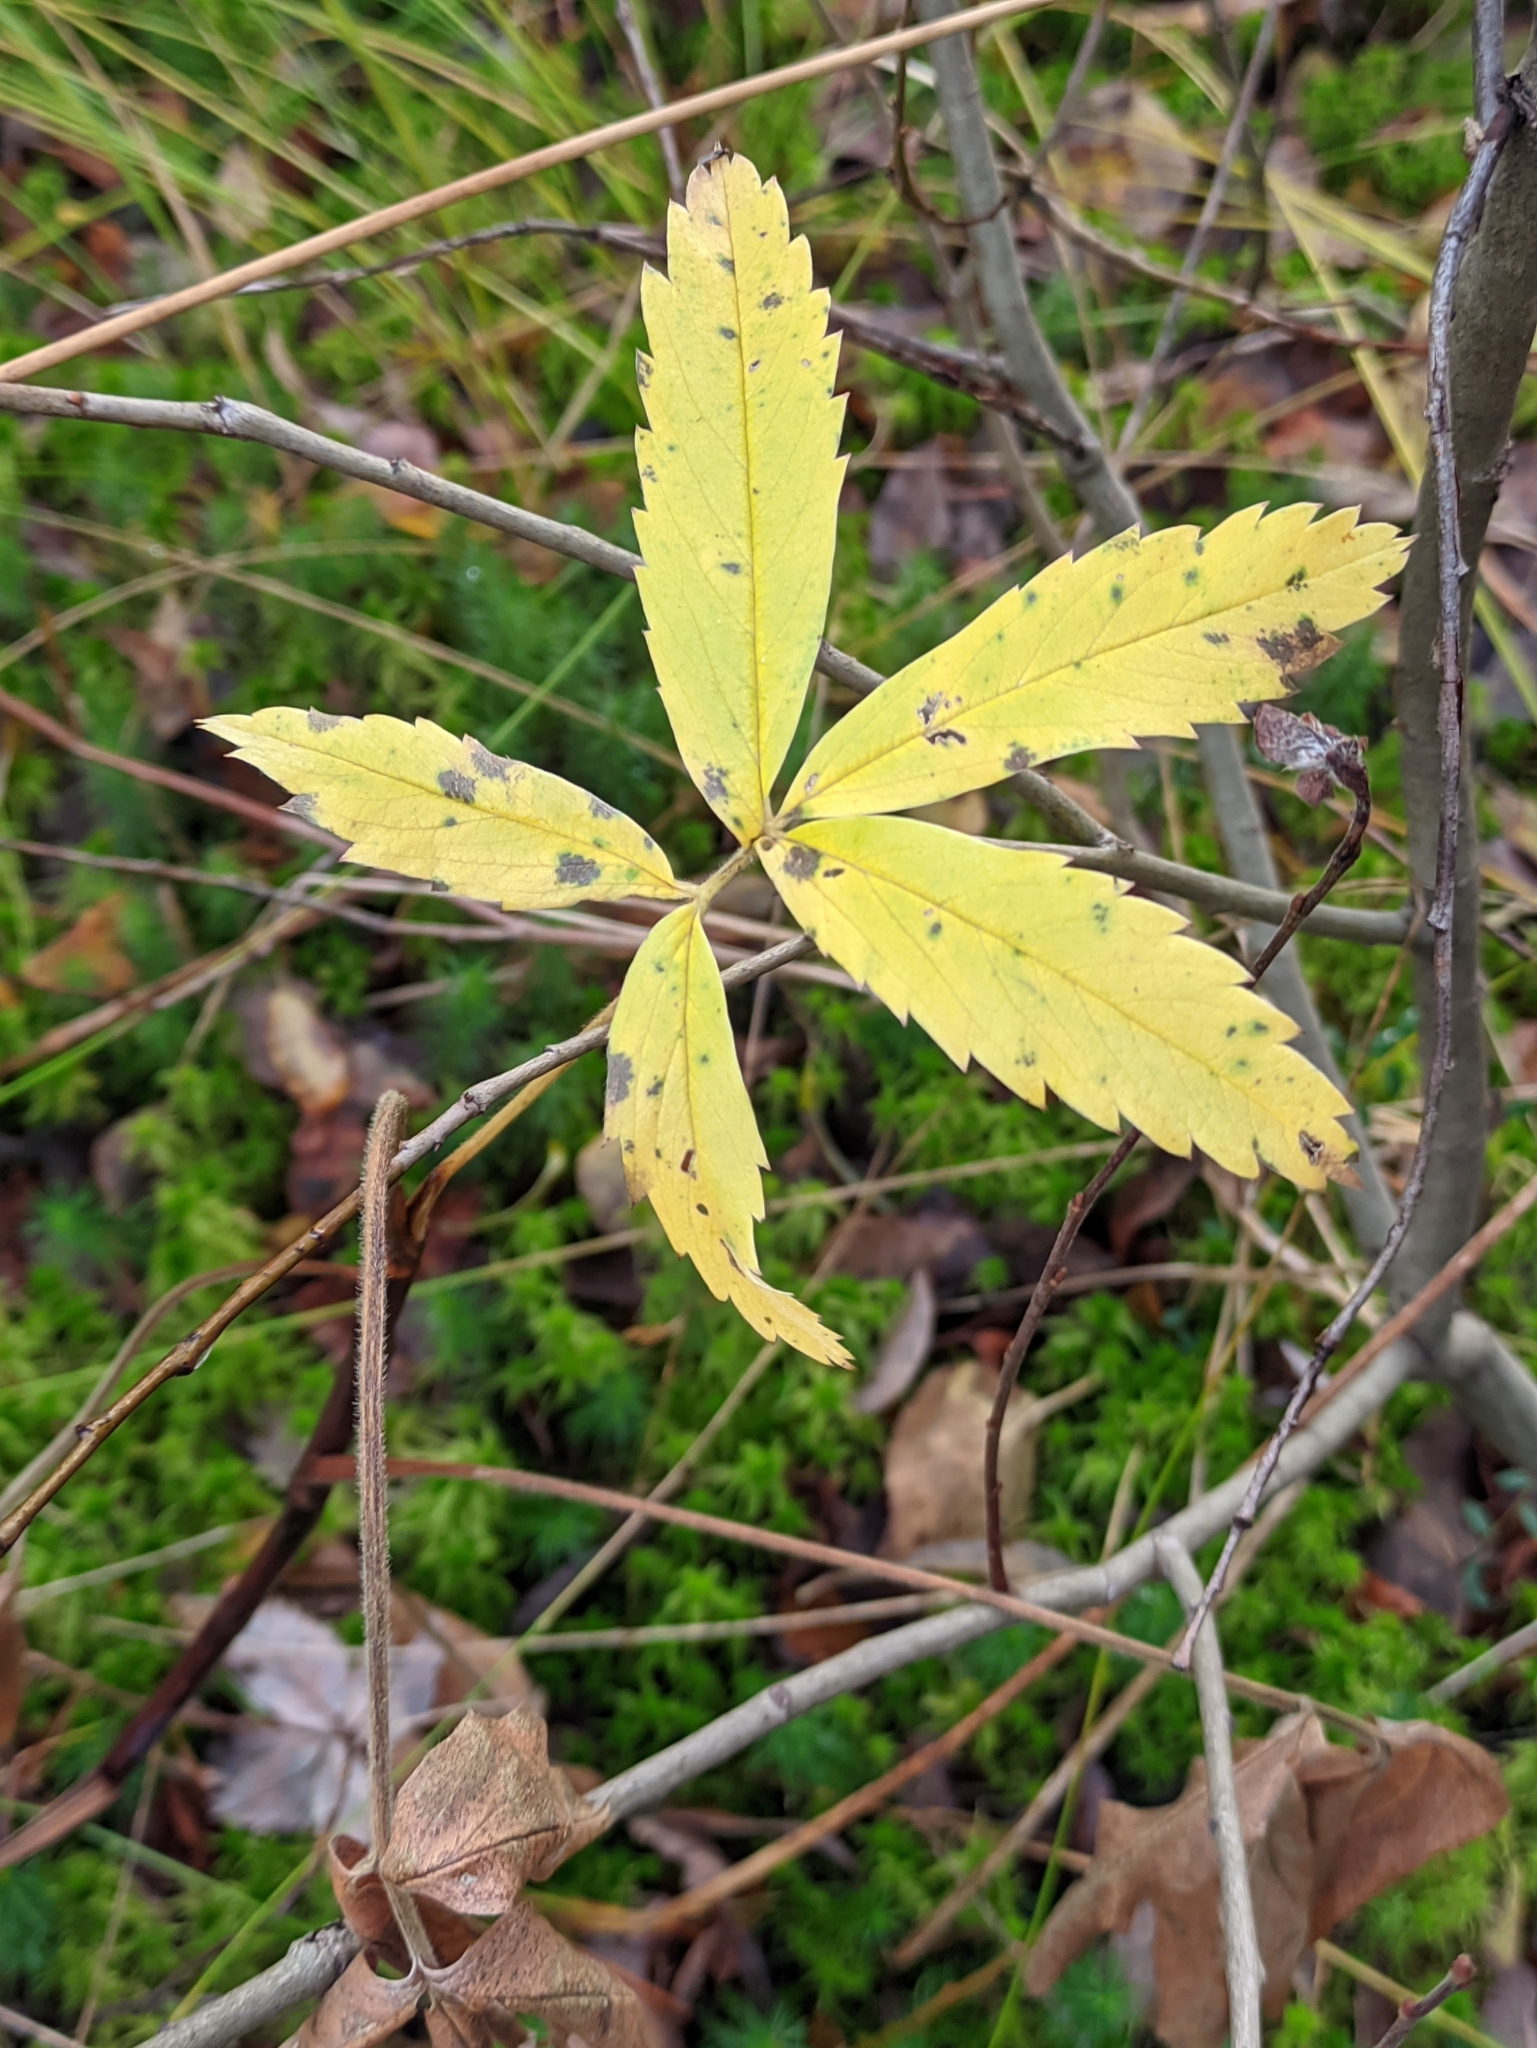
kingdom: Plantae
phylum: Tracheophyta
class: Magnoliopsida
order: Rosales
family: Rosaceae
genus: Comarum
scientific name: Comarum palustre
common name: Marsh cinquefoil
